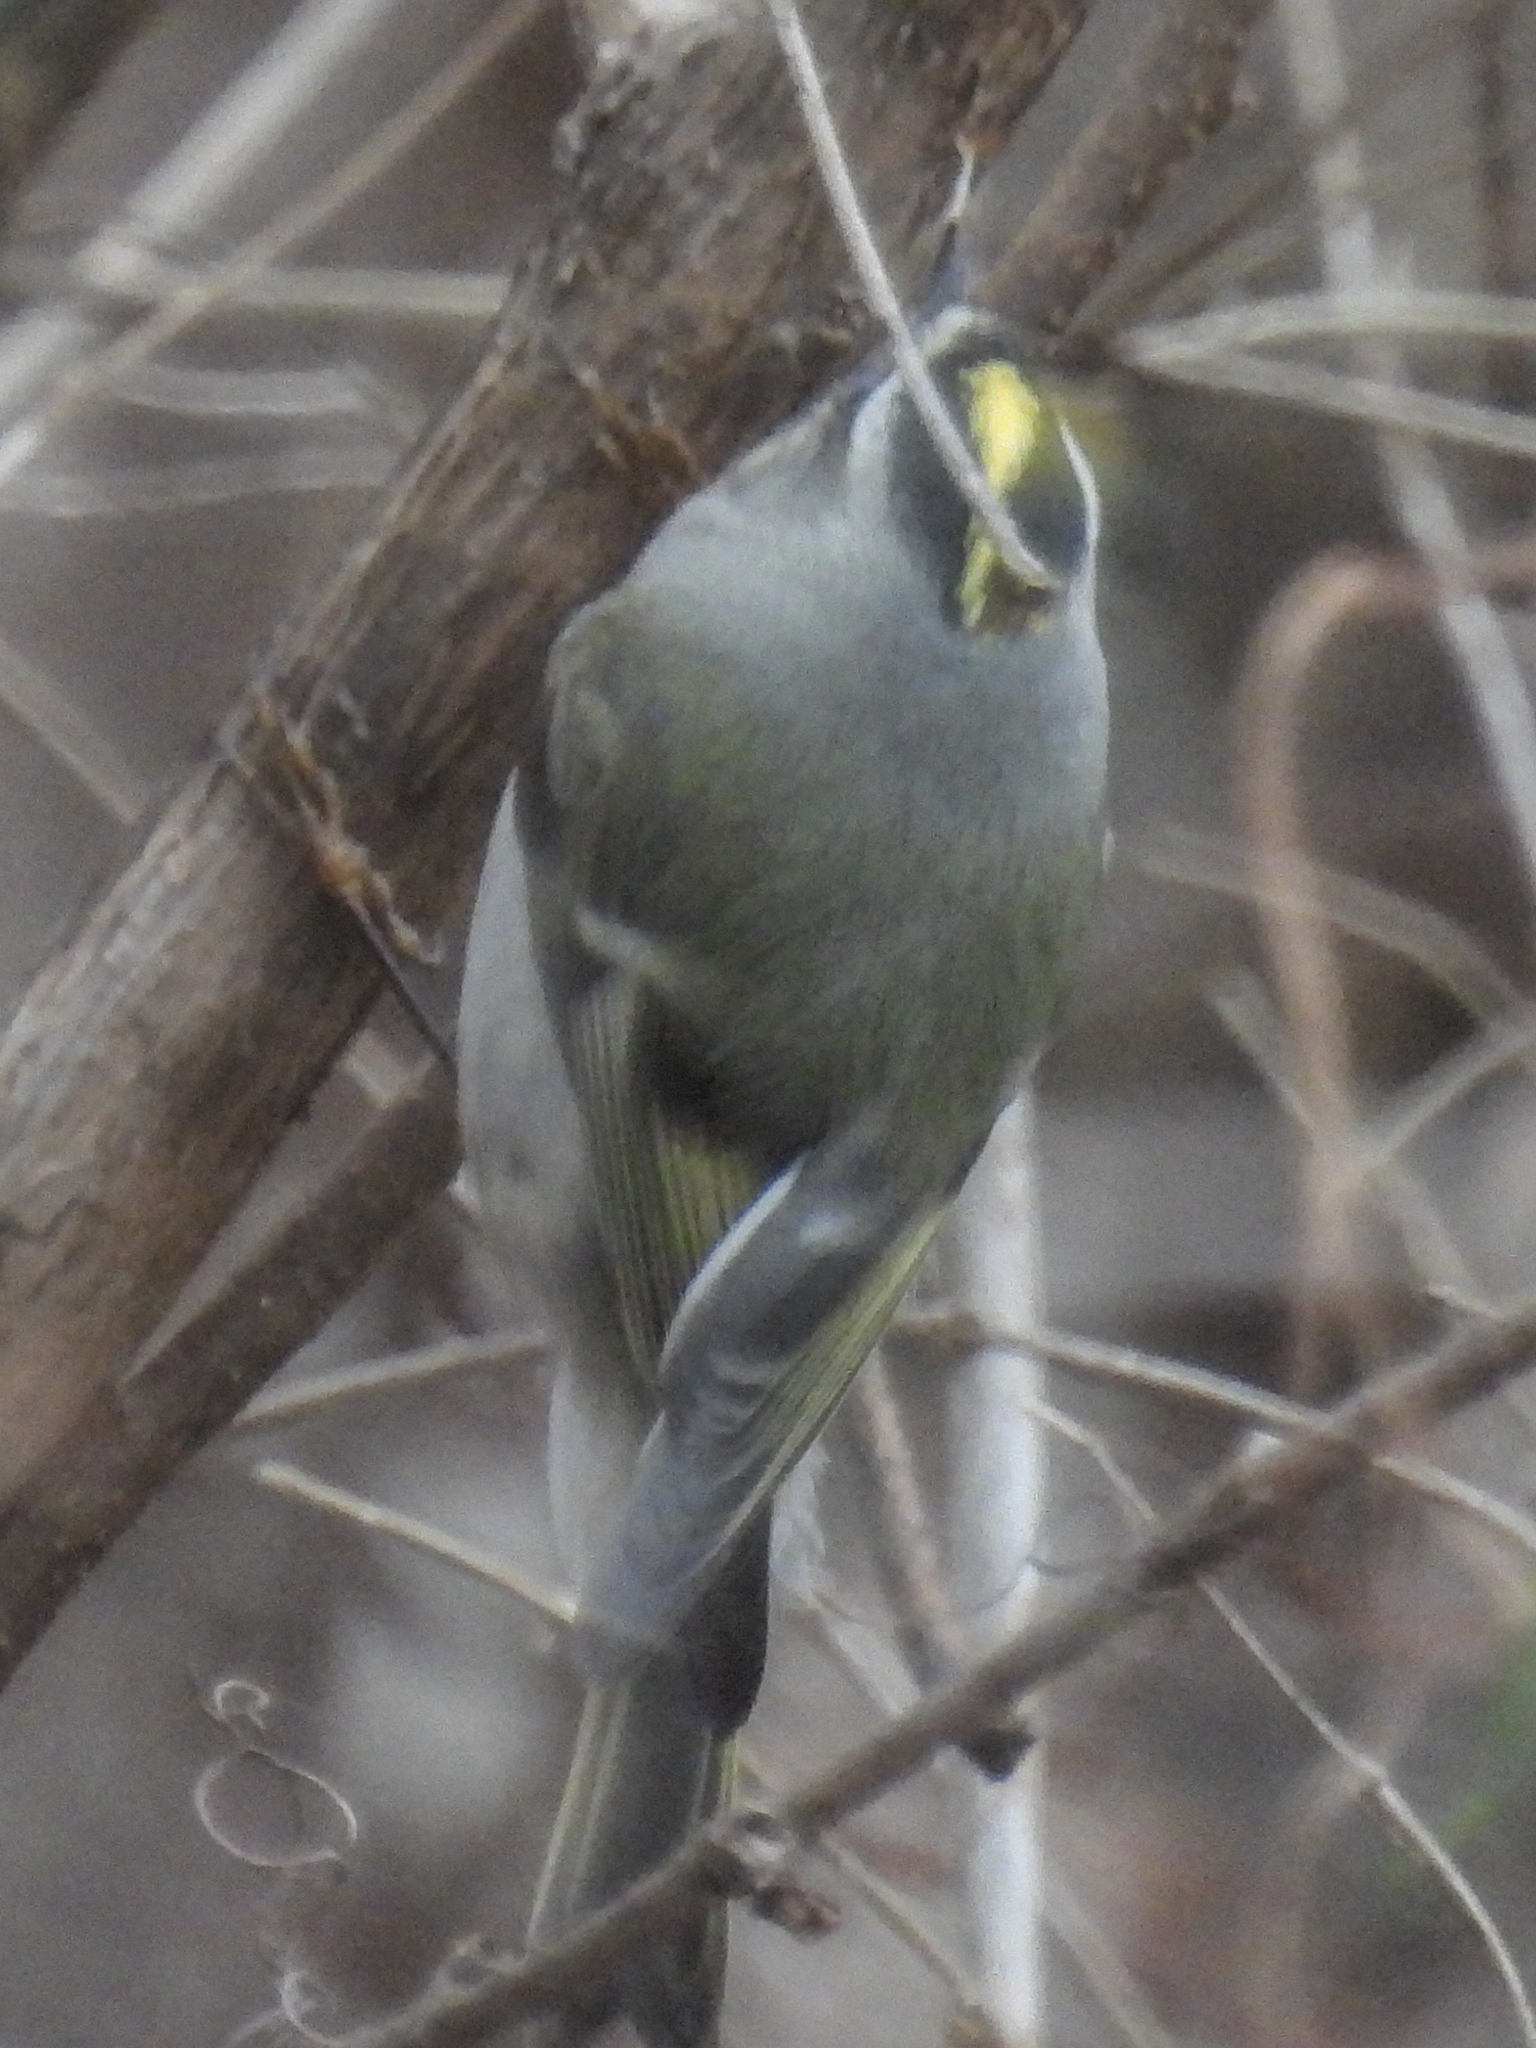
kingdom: Animalia
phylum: Chordata
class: Aves
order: Passeriformes
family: Regulidae
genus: Regulus
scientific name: Regulus satrapa
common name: Golden-crowned kinglet
